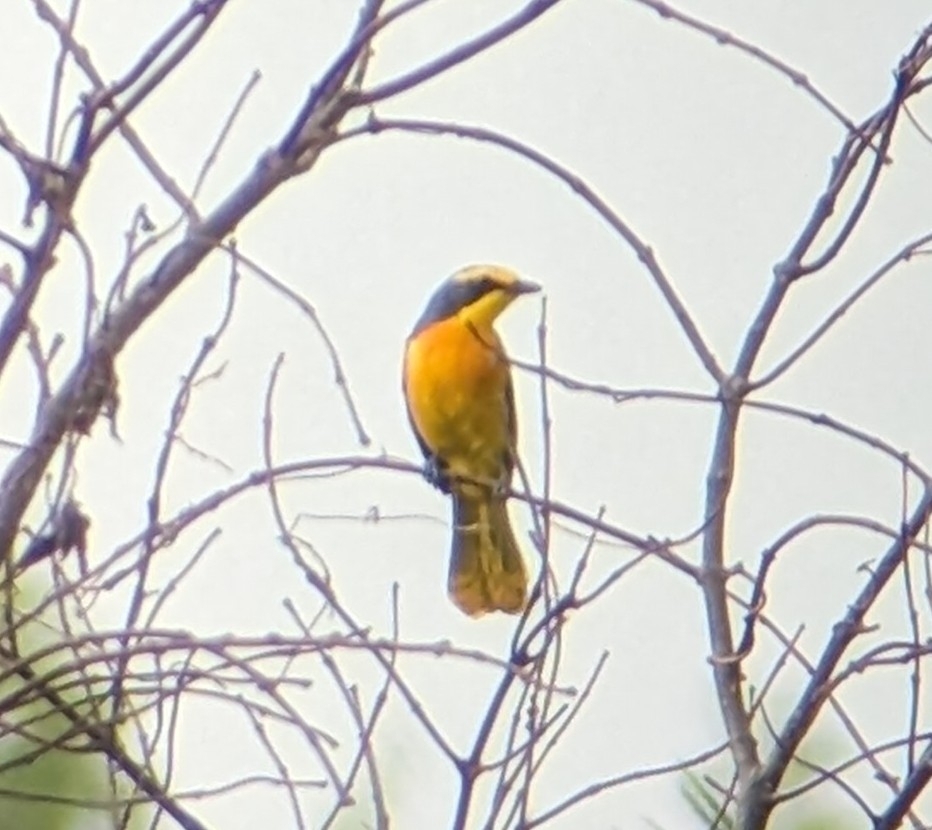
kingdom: Animalia
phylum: Chordata
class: Aves
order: Passeriformes
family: Malaconotidae
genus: Chlorophoneus
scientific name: Chlorophoneus sulfureopectus
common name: Orange-breasted bushshrike
